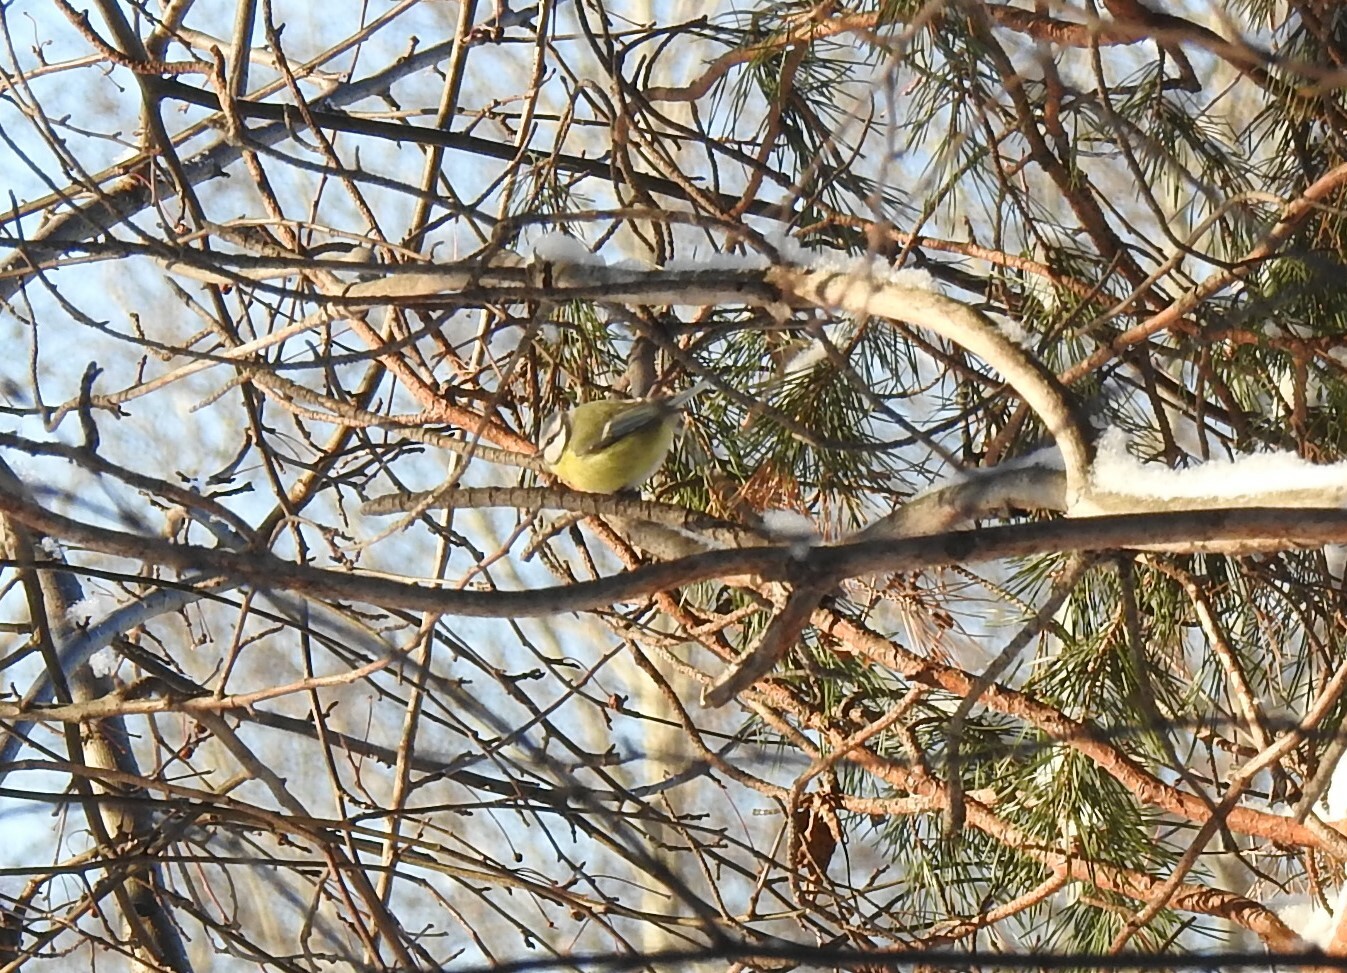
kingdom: Animalia
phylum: Chordata
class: Aves
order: Passeriformes
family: Paridae
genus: Cyanistes
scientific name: Cyanistes caeruleus
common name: Eurasian blue tit
